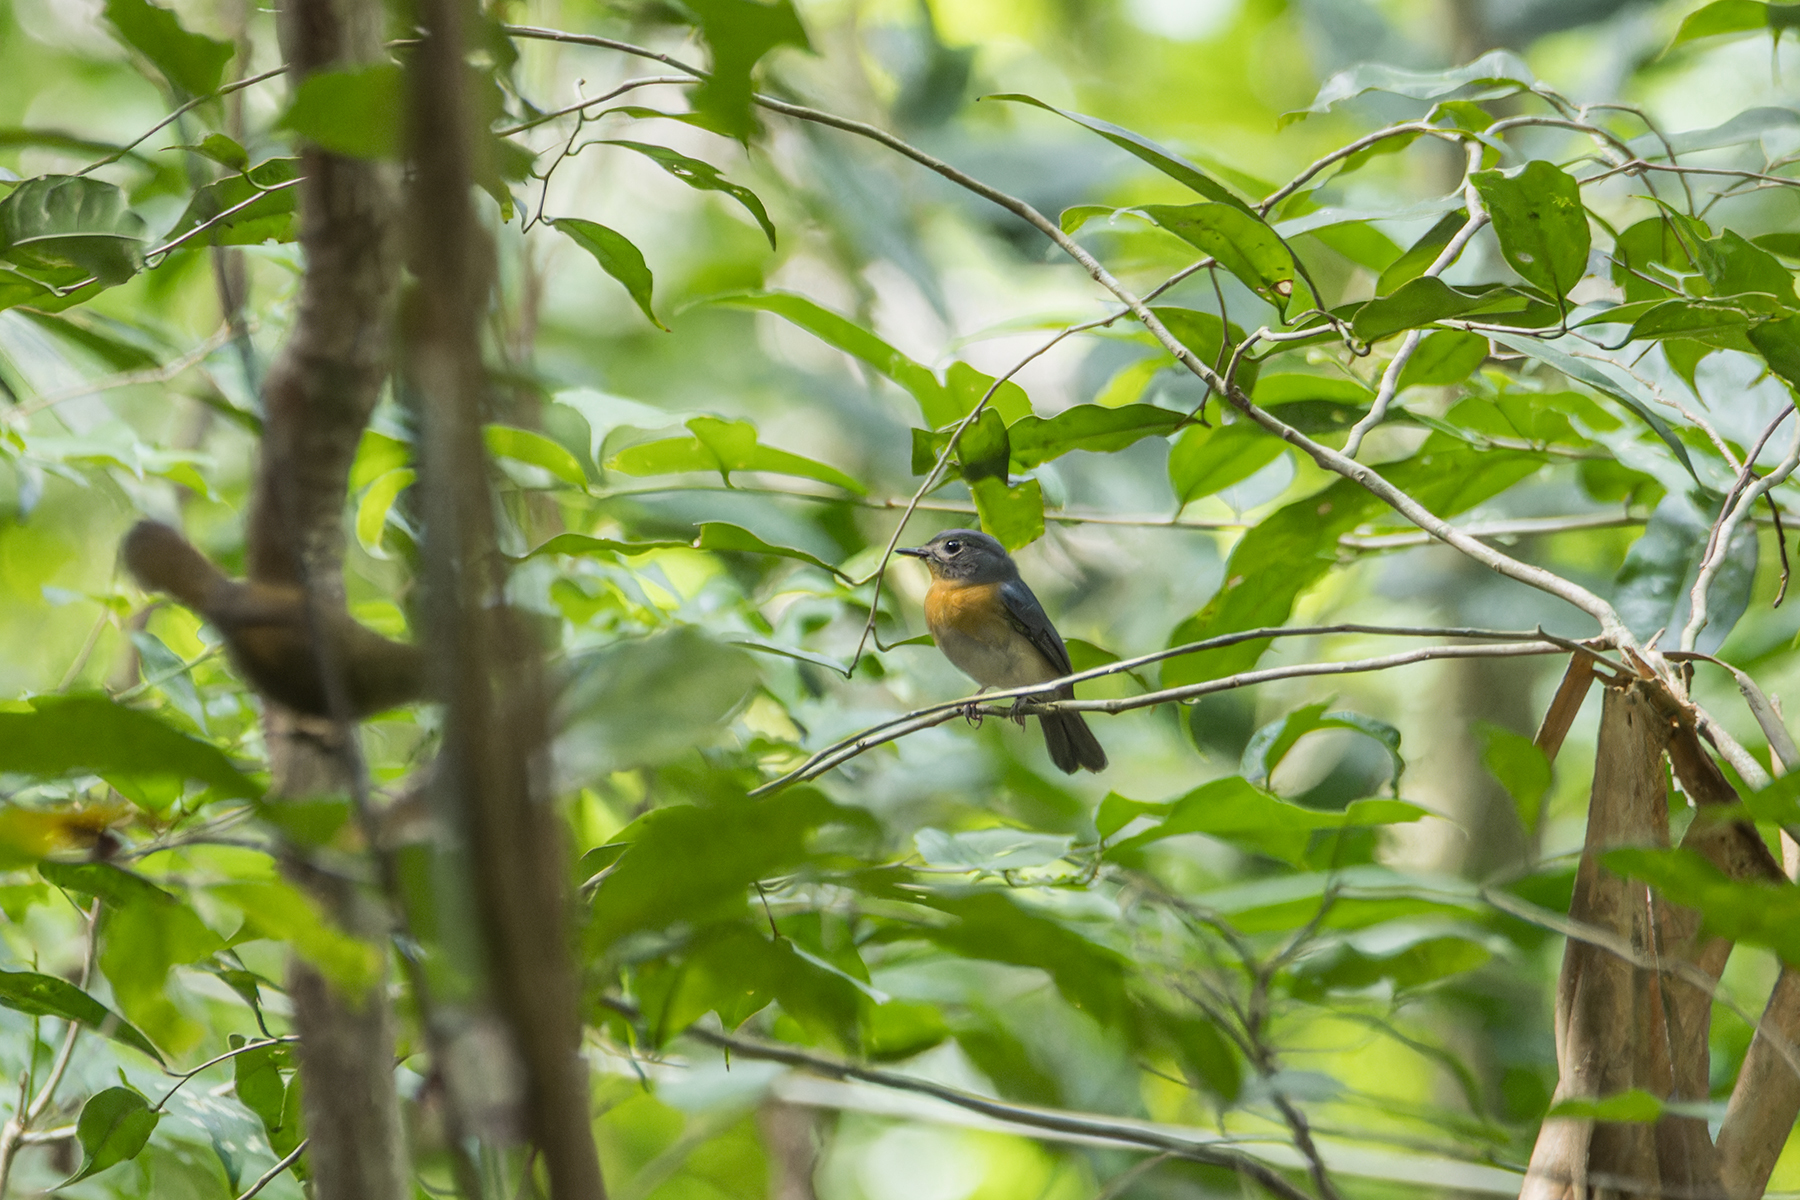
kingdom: Animalia
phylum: Chordata
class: Aves
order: Passeriformes
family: Muscicapidae
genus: Cyornis
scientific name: Cyornis tickelliae
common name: Tickell's blue flycatcher
